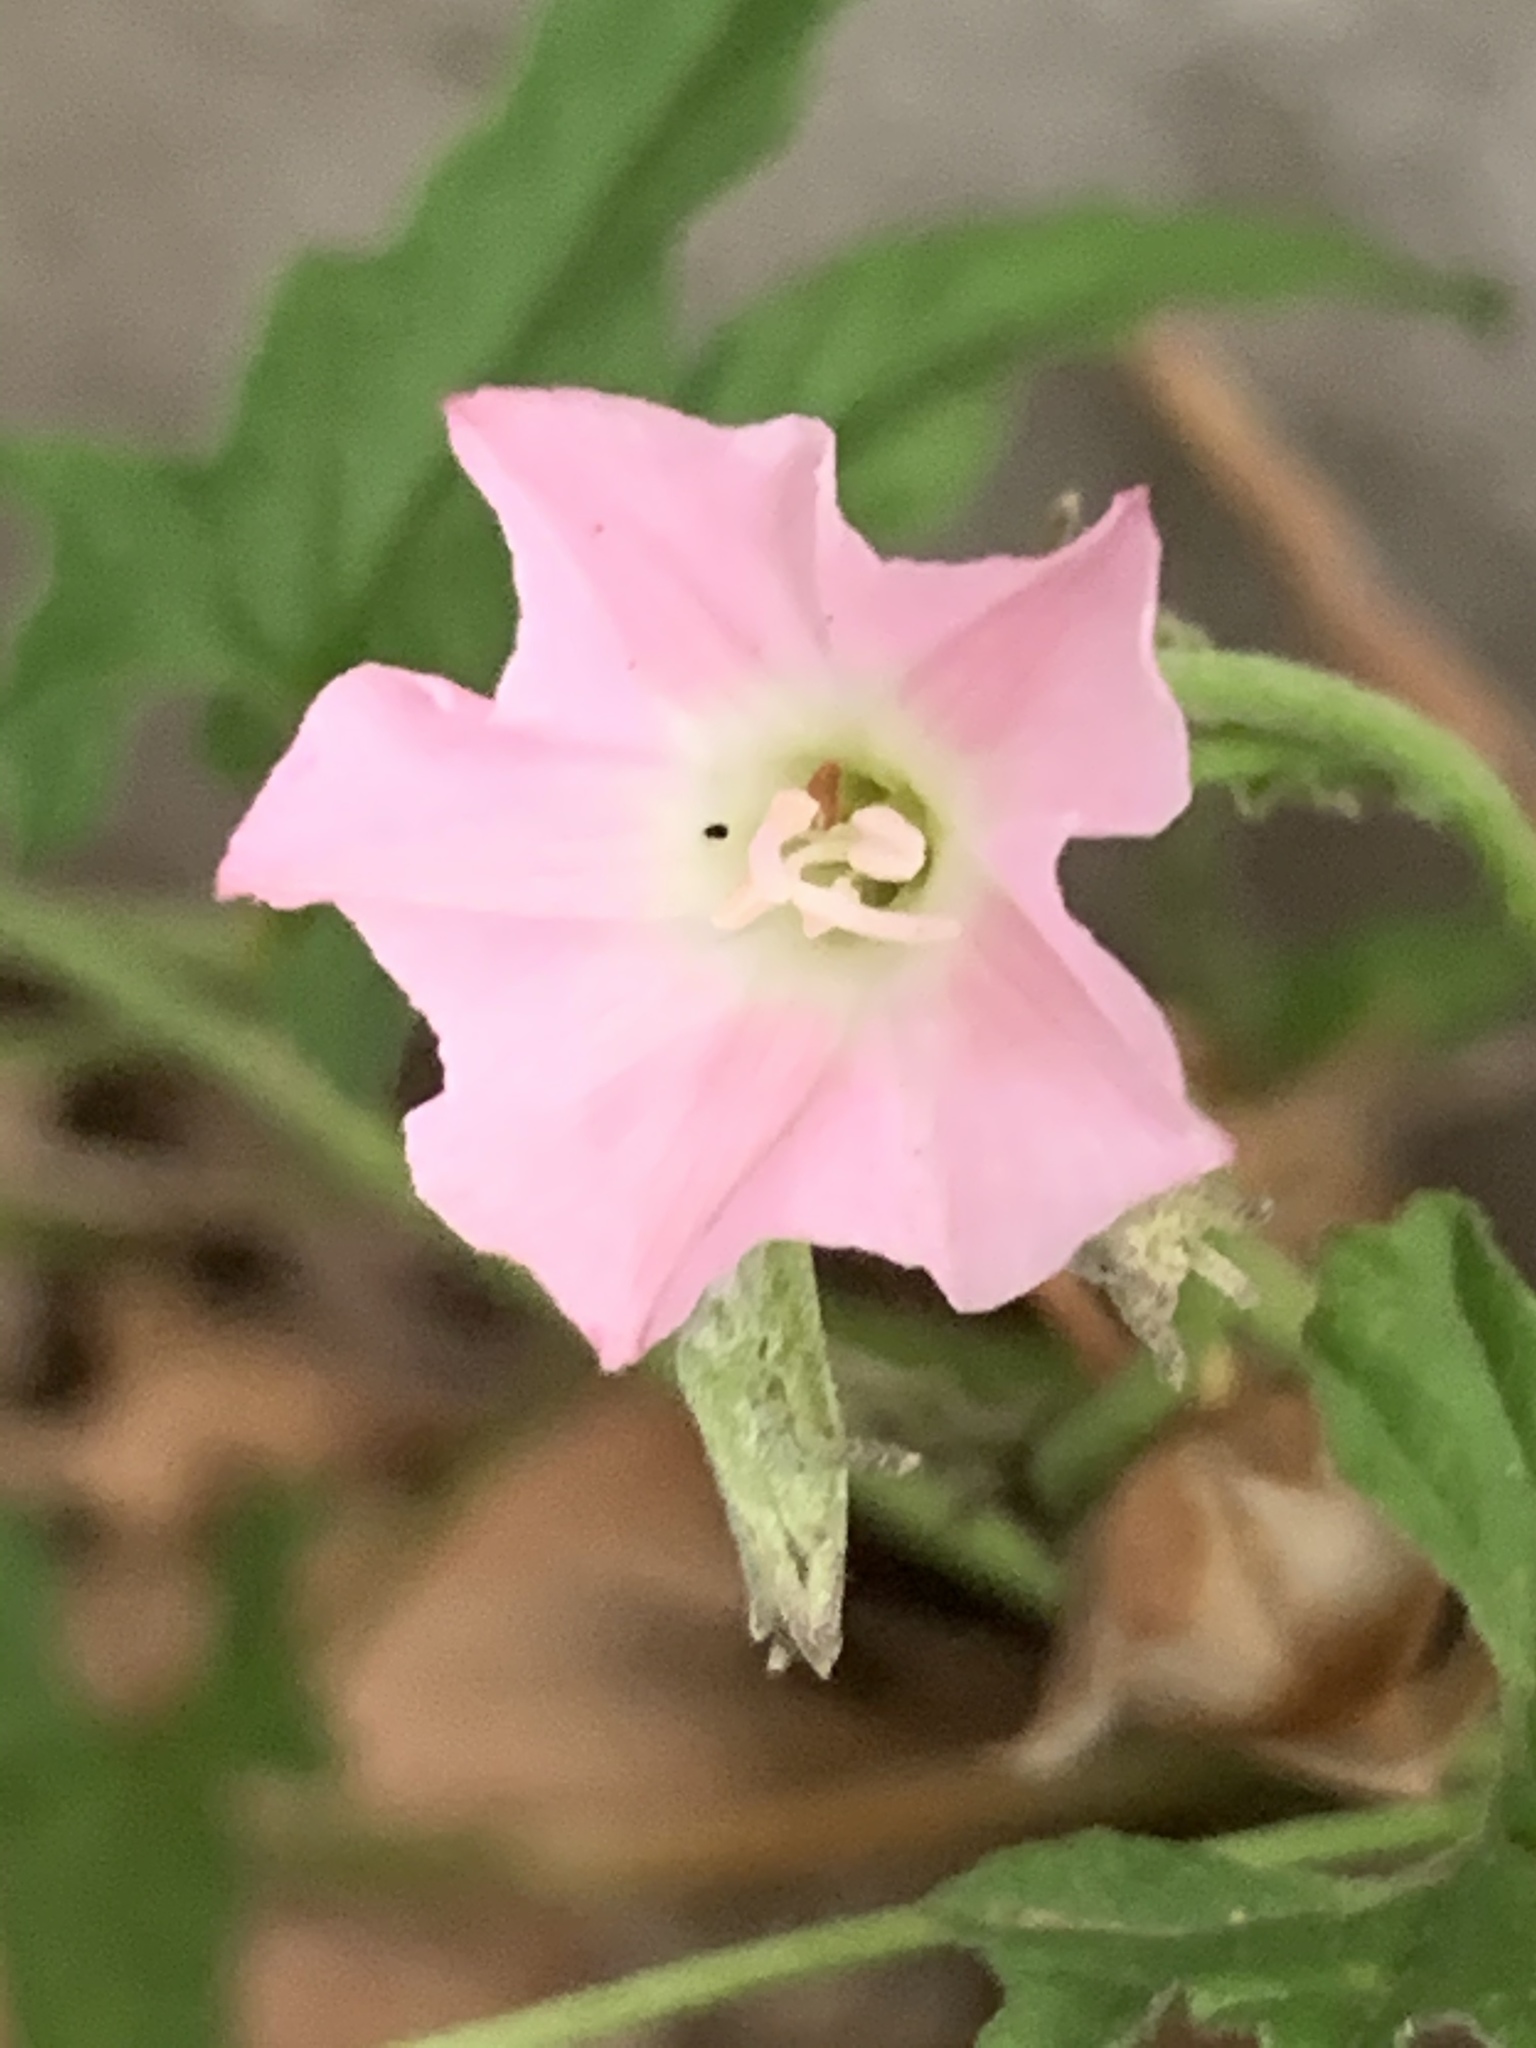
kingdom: Plantae
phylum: Tracheophyta
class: Magnoliopsida
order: Solanales
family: Convolvulaceae
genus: Convolvulus
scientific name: Convolvulus erubescens
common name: Australian bindweed
